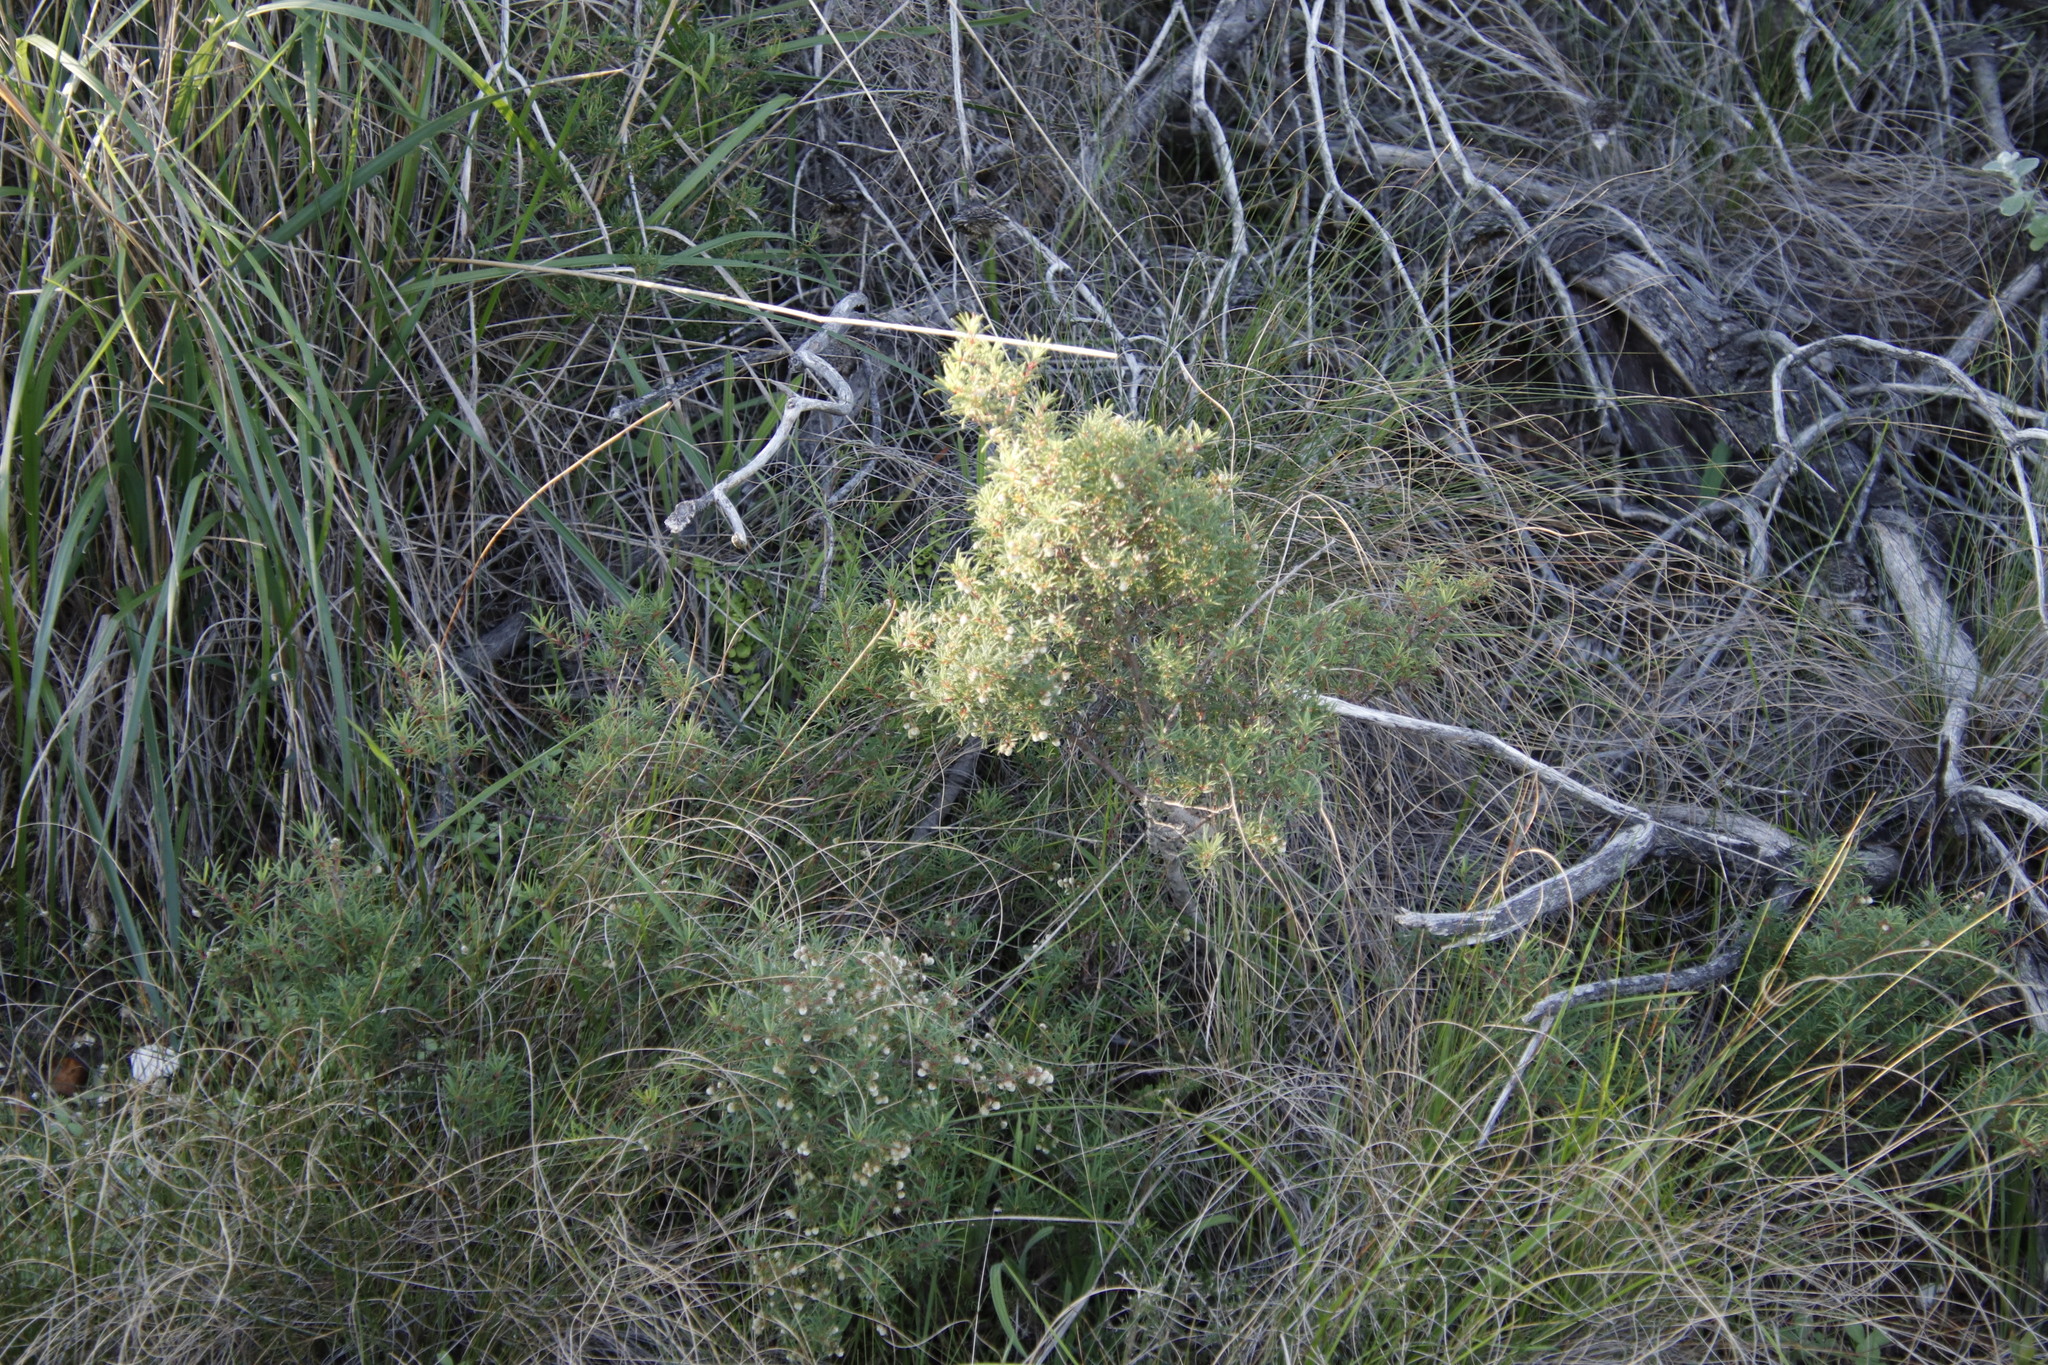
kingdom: Plantae
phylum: Tracheophyta
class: Magnoliopsida
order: Sapindales
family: Anacardiaceae
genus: Searsia
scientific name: Searsia rosmarinifolia
